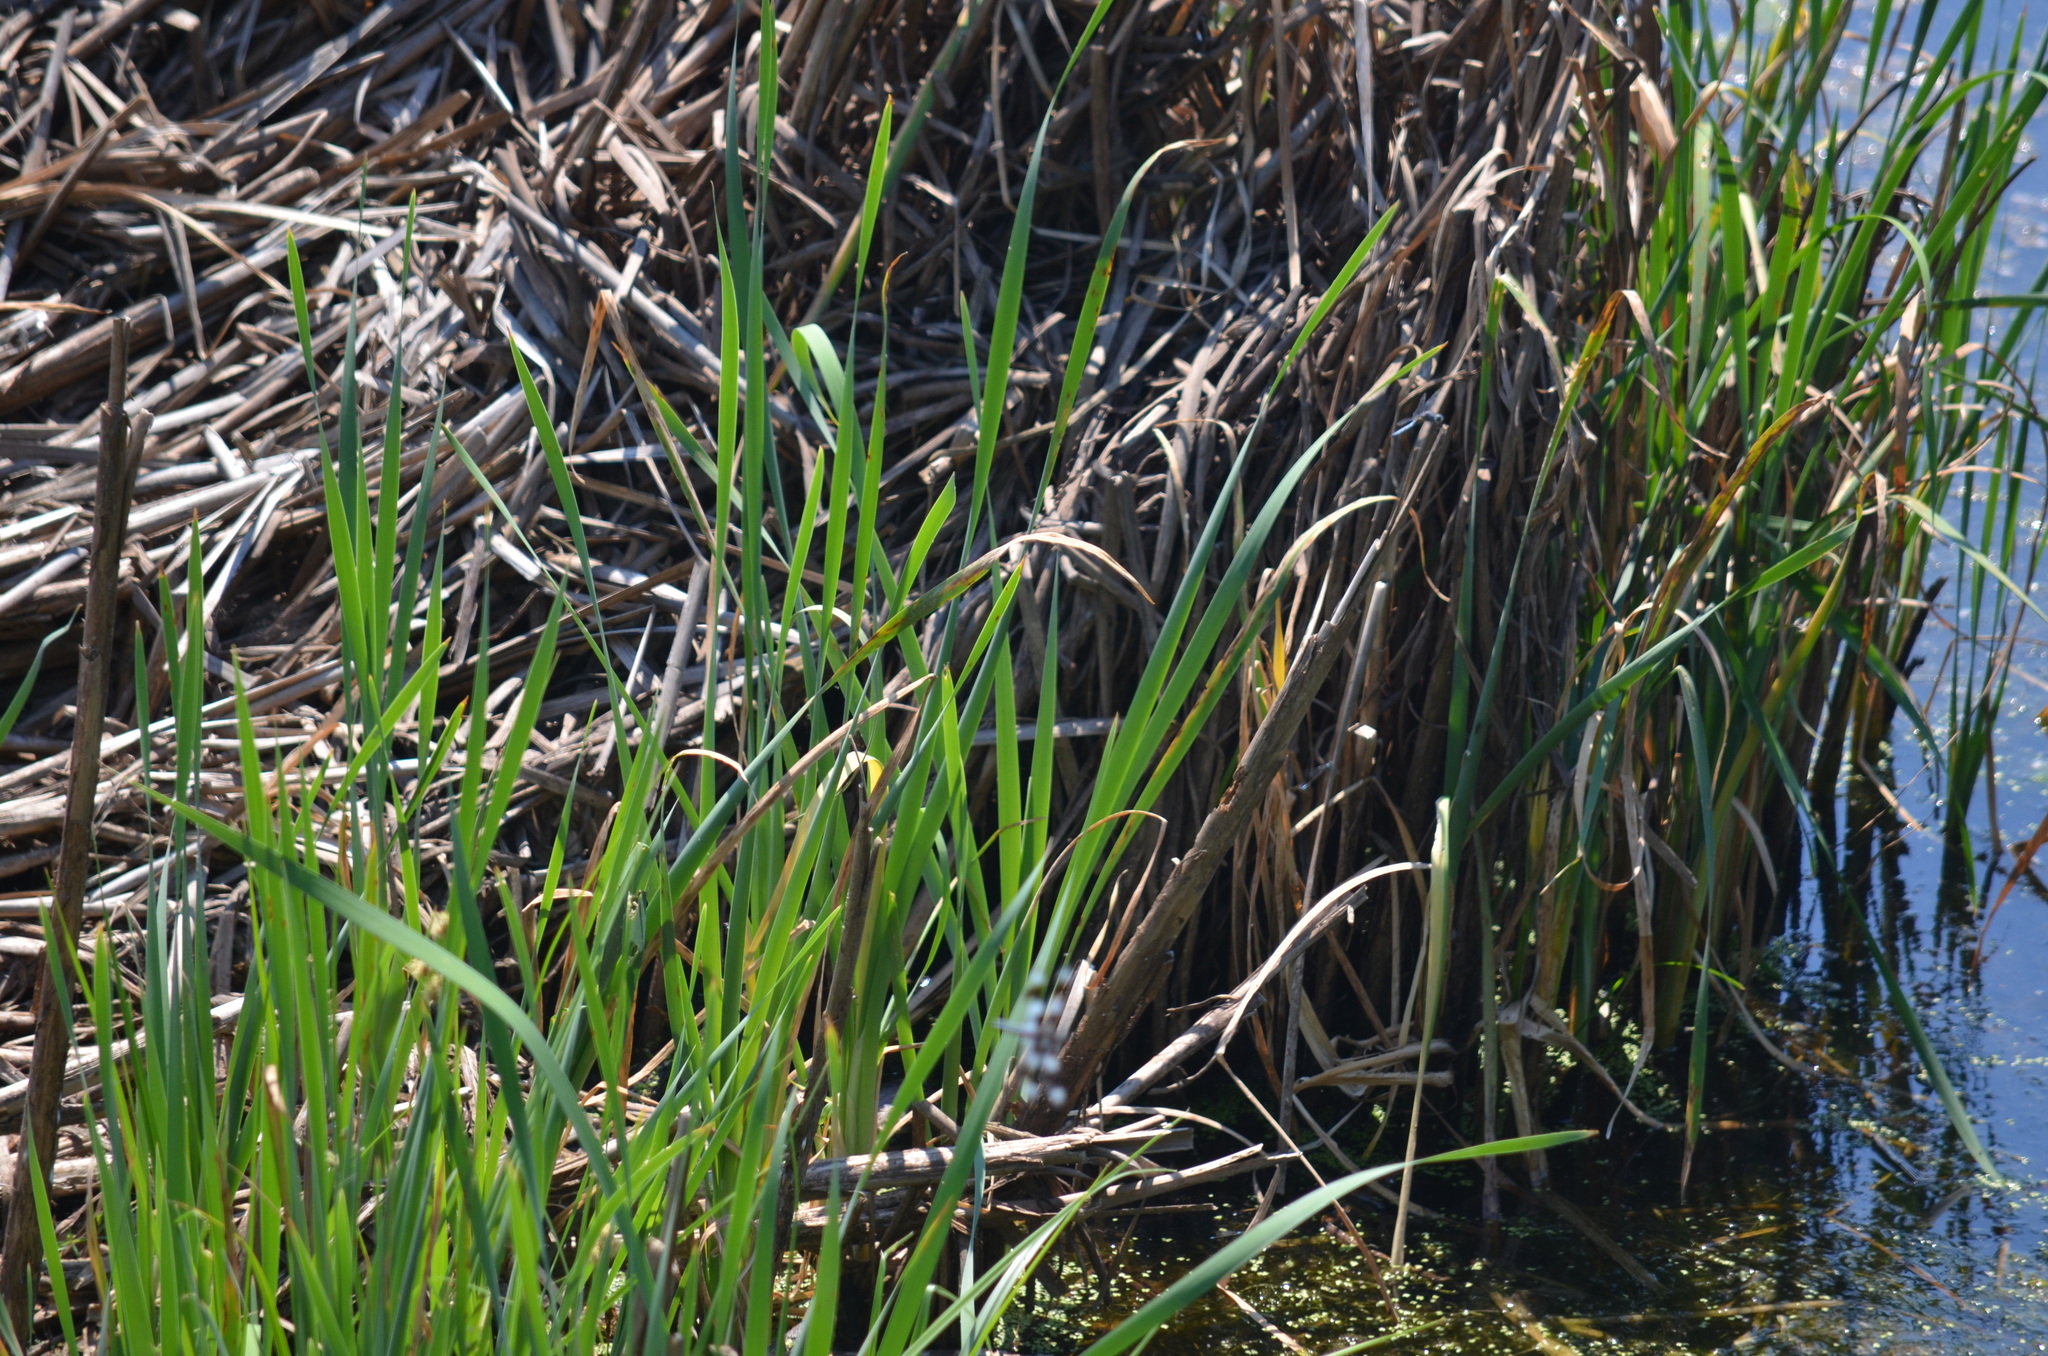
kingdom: Animalia
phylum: Arthropoda
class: Insecta
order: Odonata
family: Libellulidae
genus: Libellula
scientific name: Libellula forensis
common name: Eight-spotted skimmer
